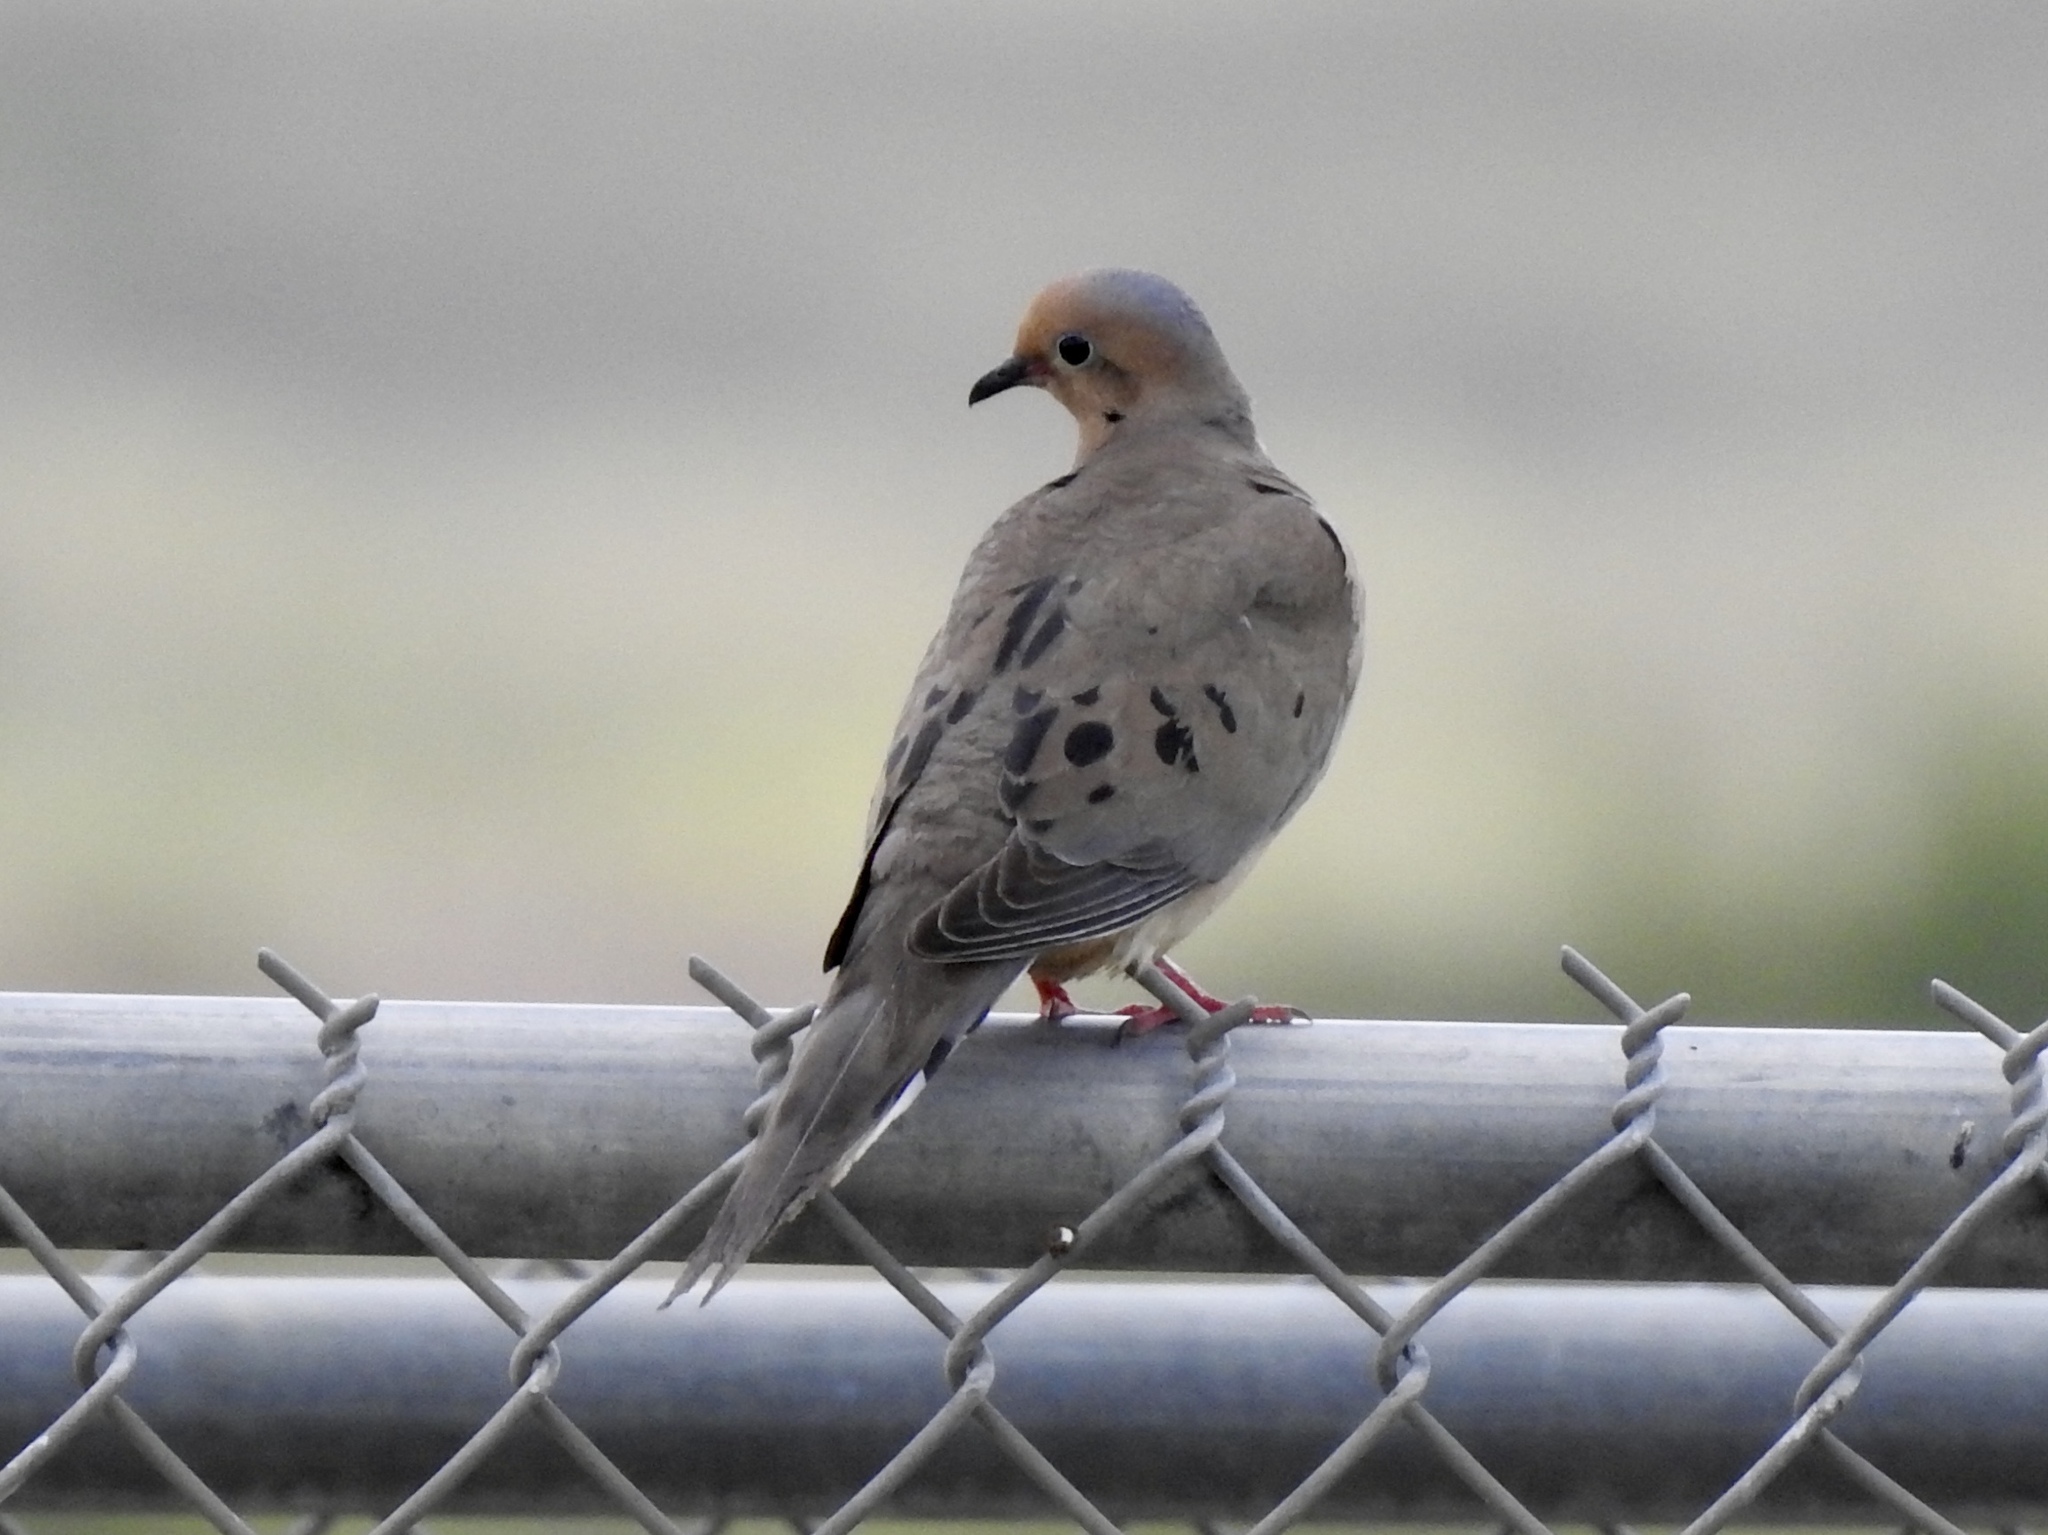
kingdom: Animalia
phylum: Chordata
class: Aves
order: Columbiformes
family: Columbidae
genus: Zenaida
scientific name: Zenaida macroura
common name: Mourning dove
